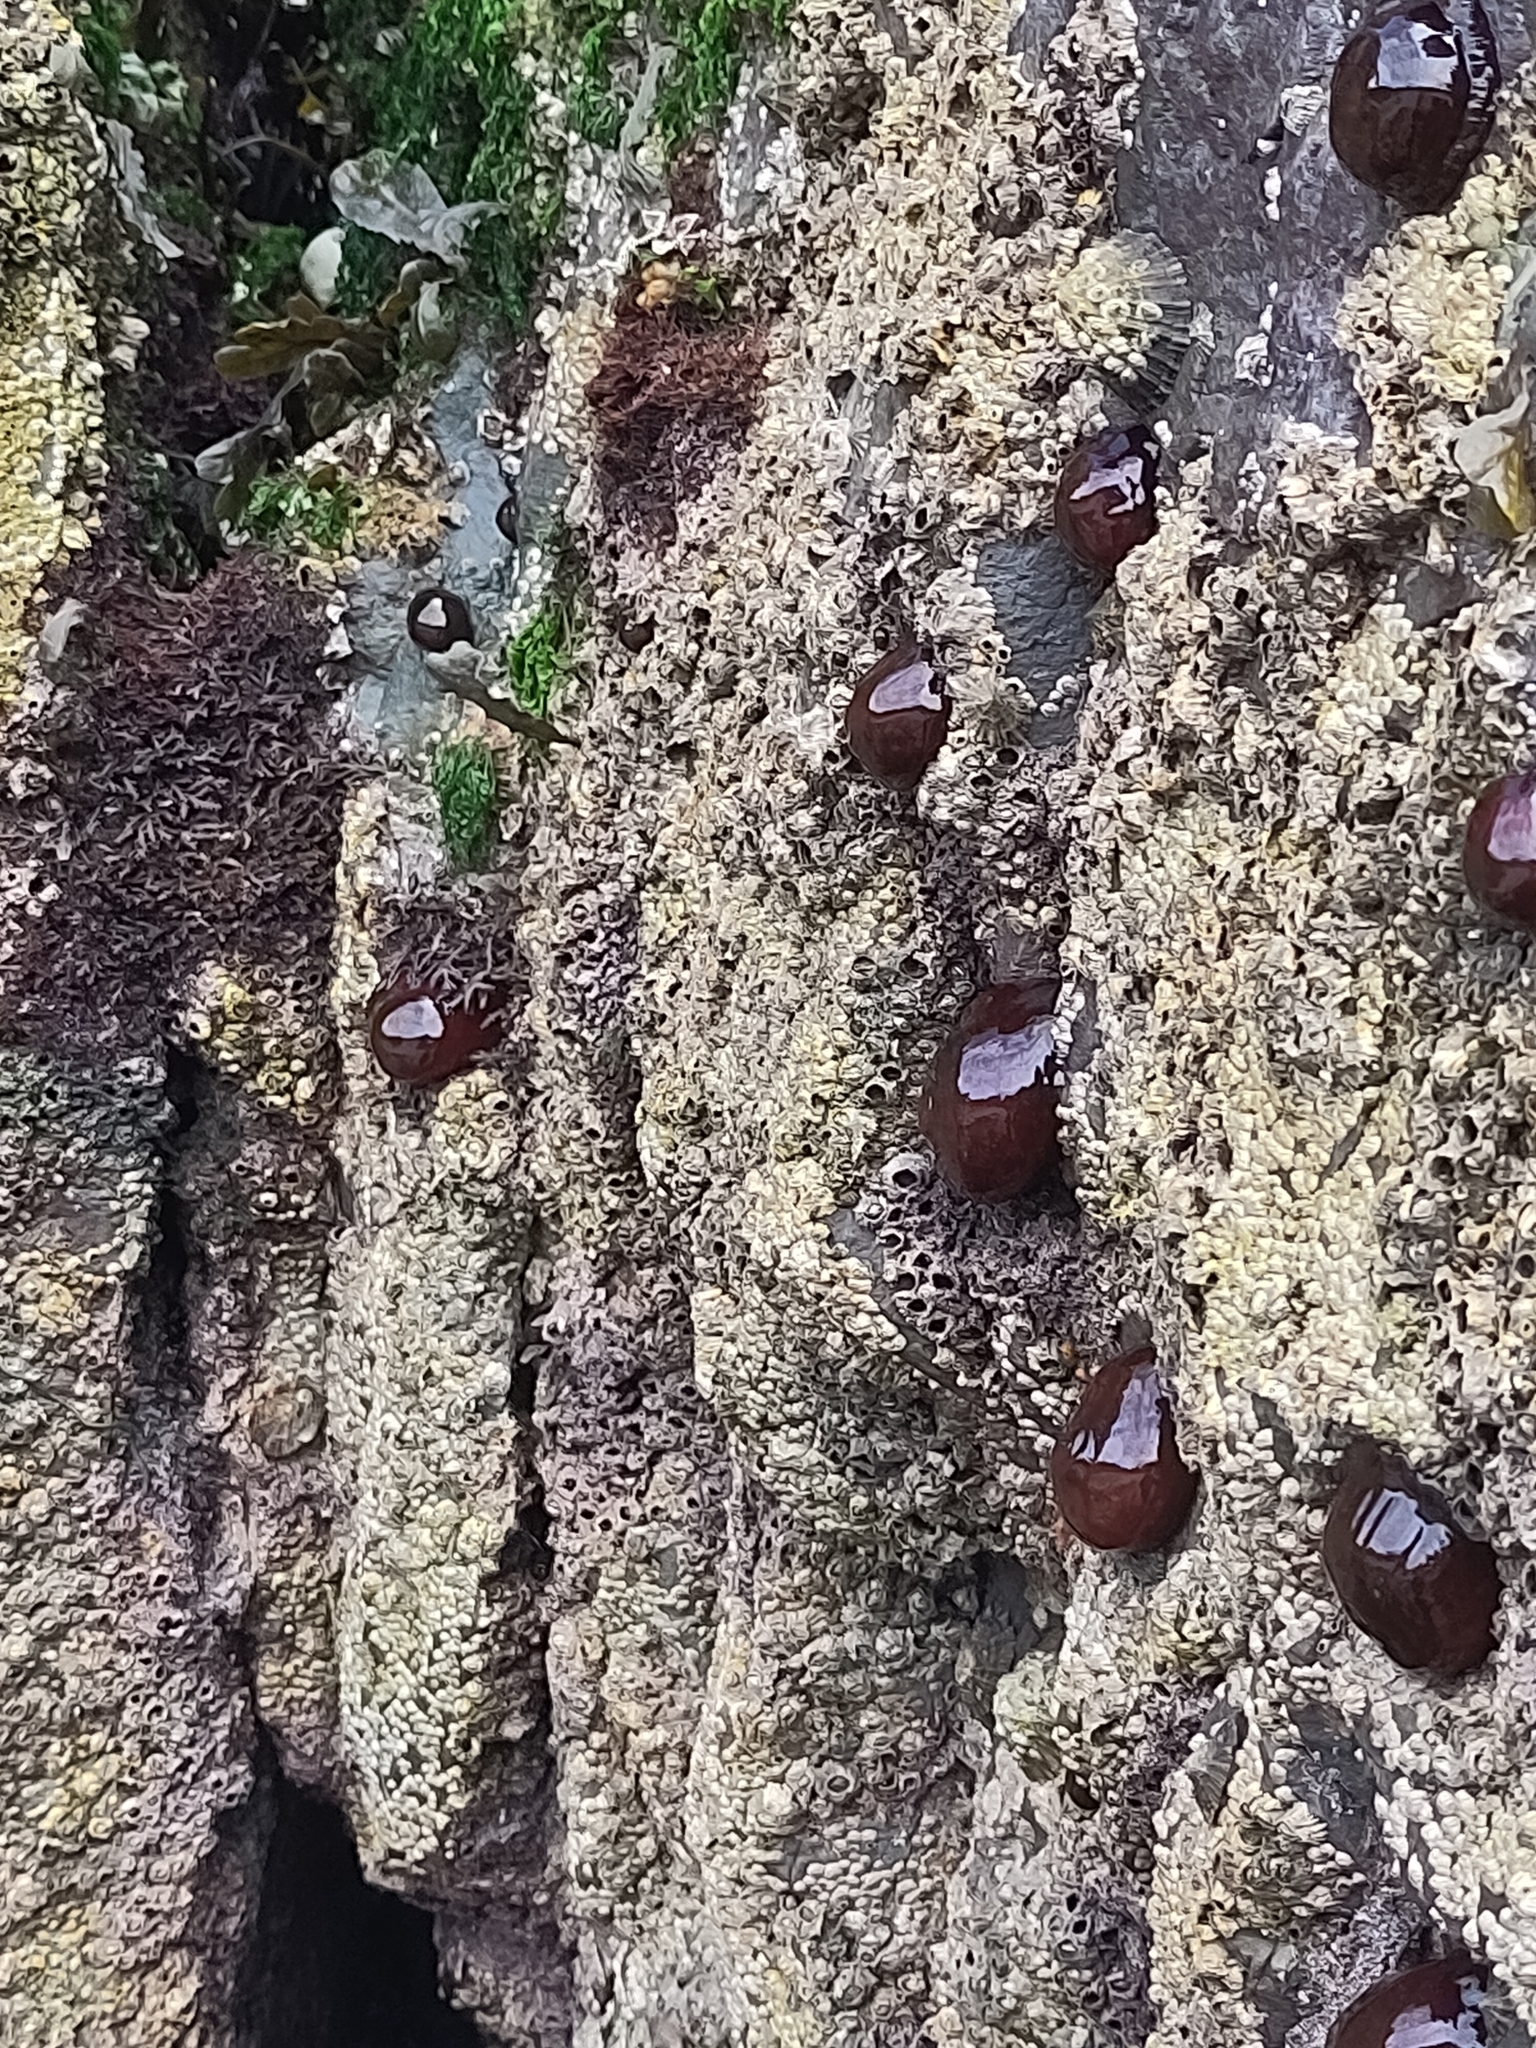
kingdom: Animalia
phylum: Cnidaria
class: Anthozoa
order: Actiniaria
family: Actiniidae
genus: Actinia
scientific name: Actinia equina
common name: Beadlet anemone
